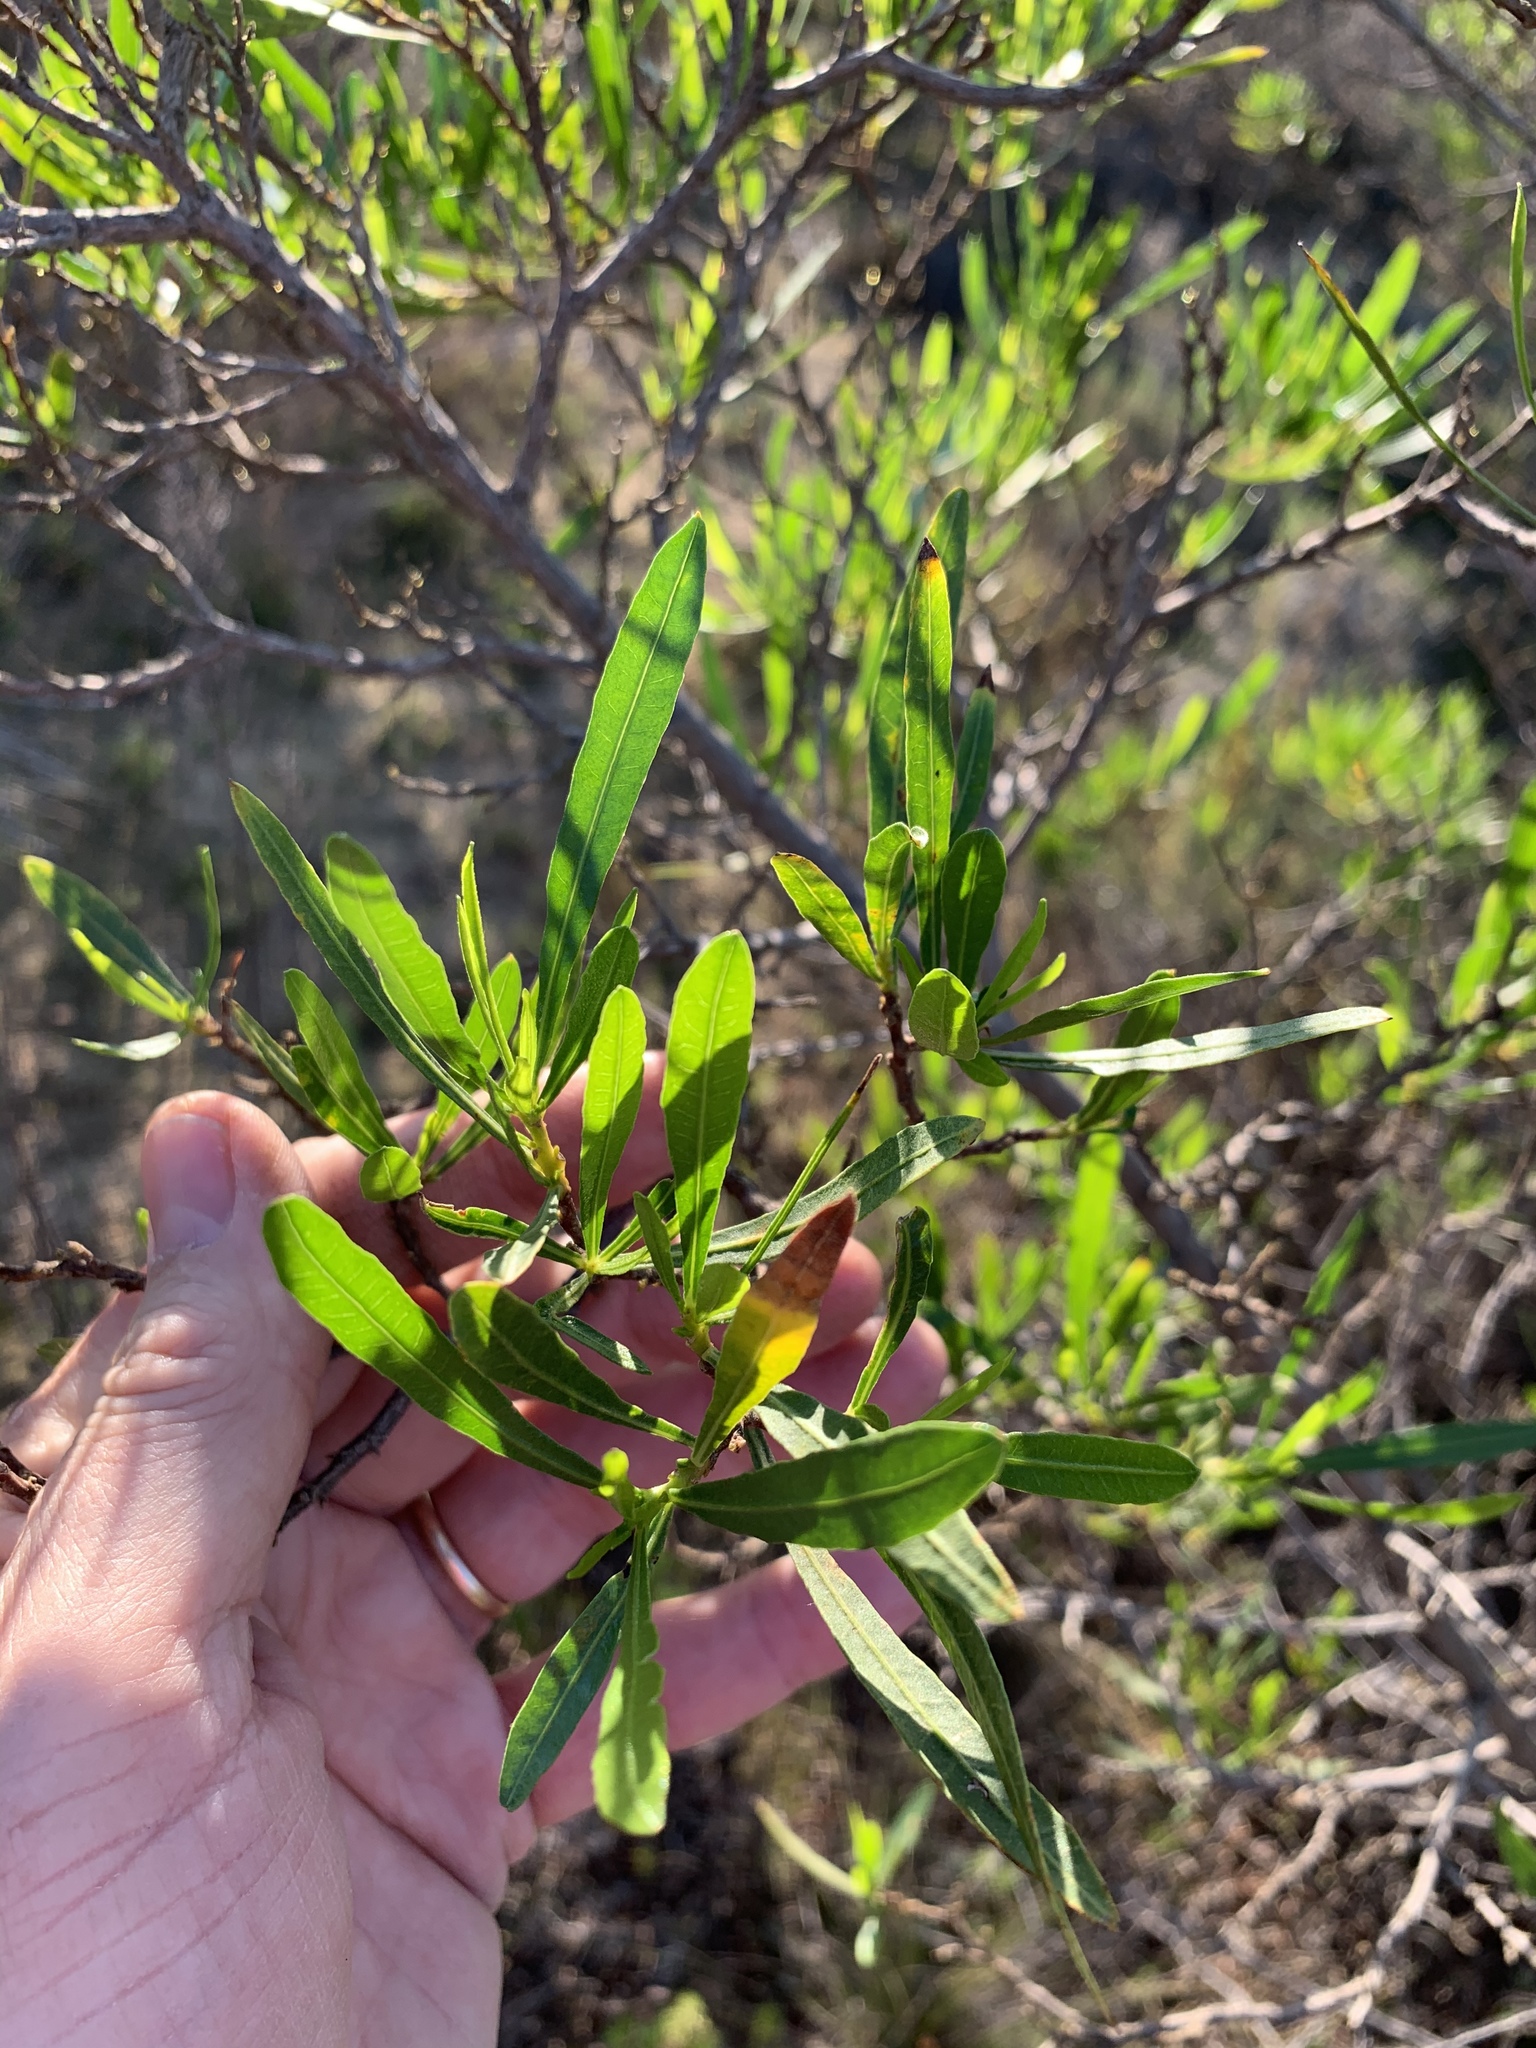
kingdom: Plantae
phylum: Tracheophyta
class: Magnoliopsida
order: Sapindales
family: Sapindaceae
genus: Dodonaea
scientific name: Dodonaea viscosa
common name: Hopbush
